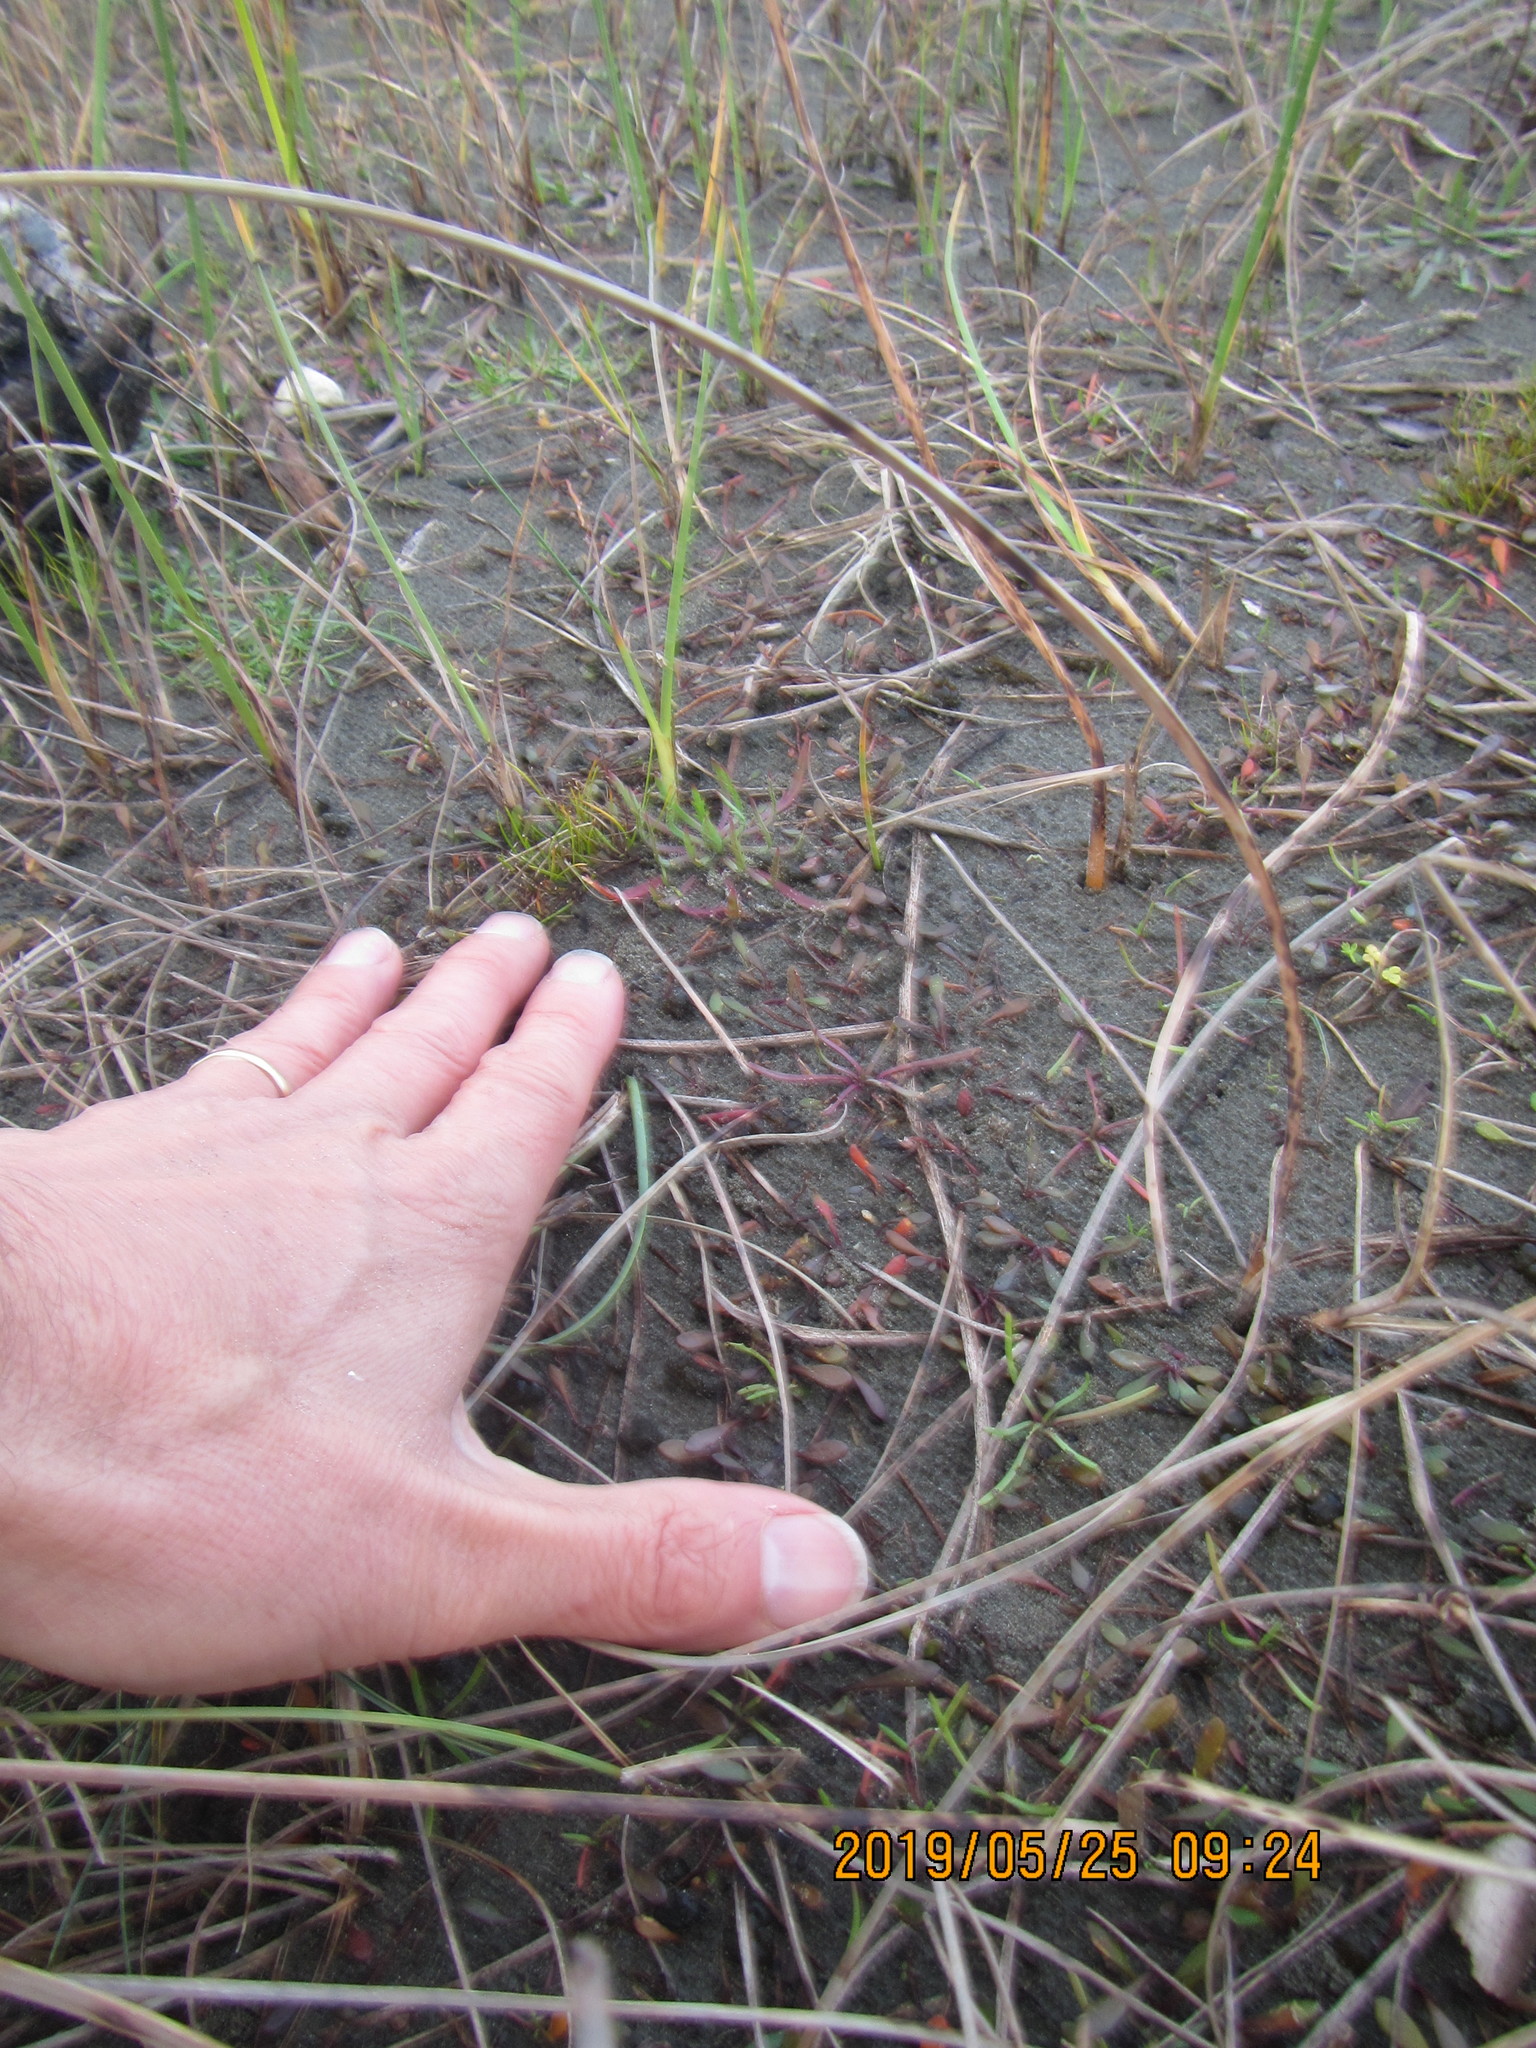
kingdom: Plantae
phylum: Tracheophyta
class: Magnoliopsida
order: Asterales
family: Goodeniaceae
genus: Goodenia
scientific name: Goodenia radicans
